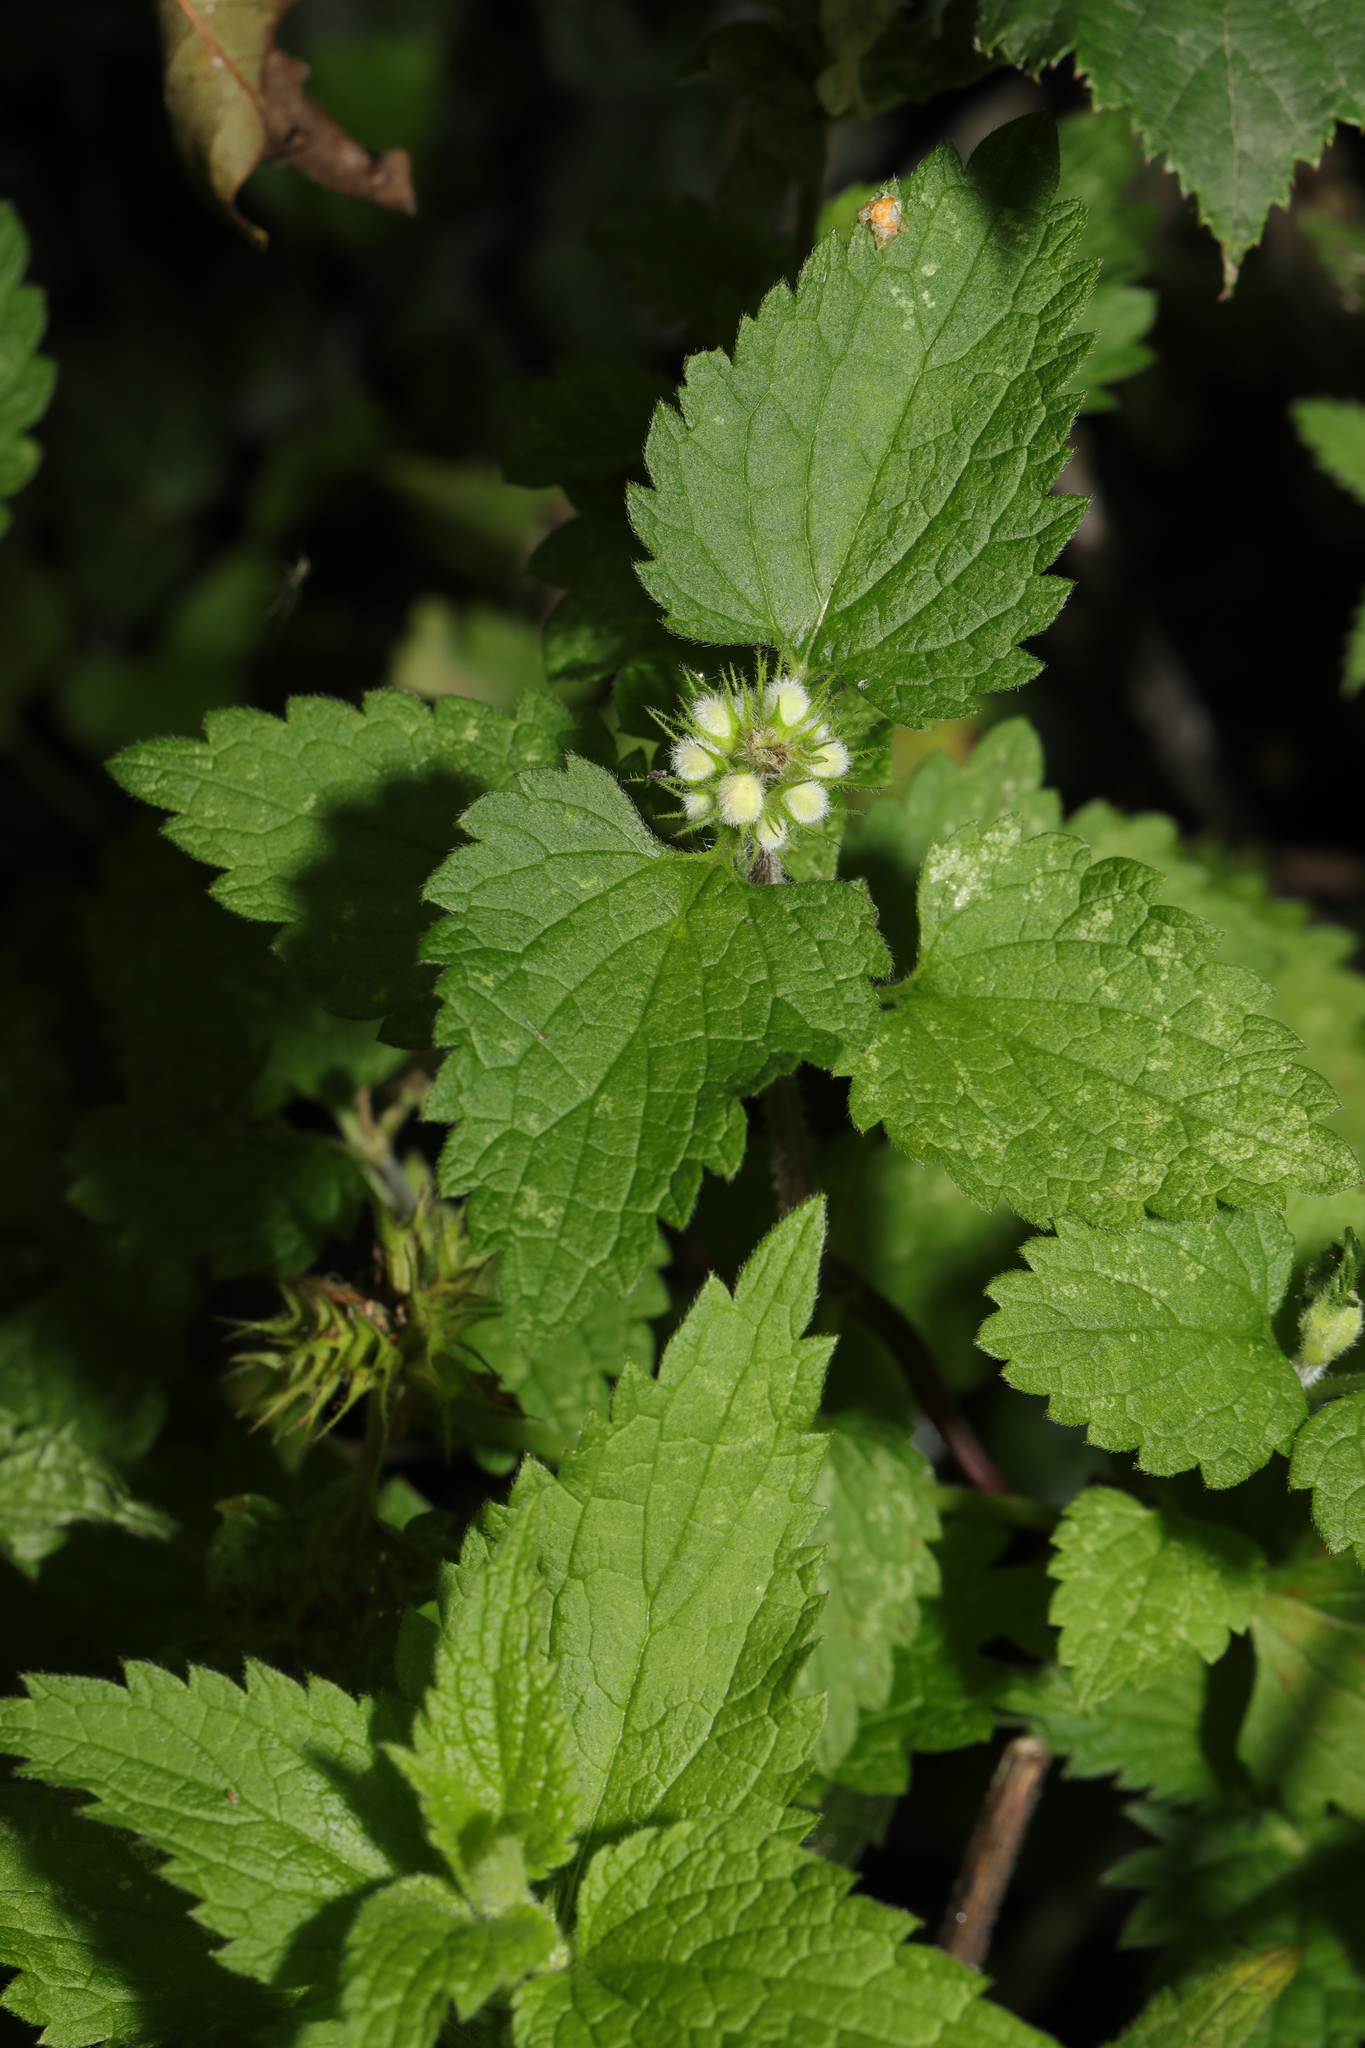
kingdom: Plantae
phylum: Tracheophyta
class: Magnoliopsida
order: Lamiales
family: Lamiaceae
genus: Lamium
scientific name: Lamium album
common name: White dead-nettle
